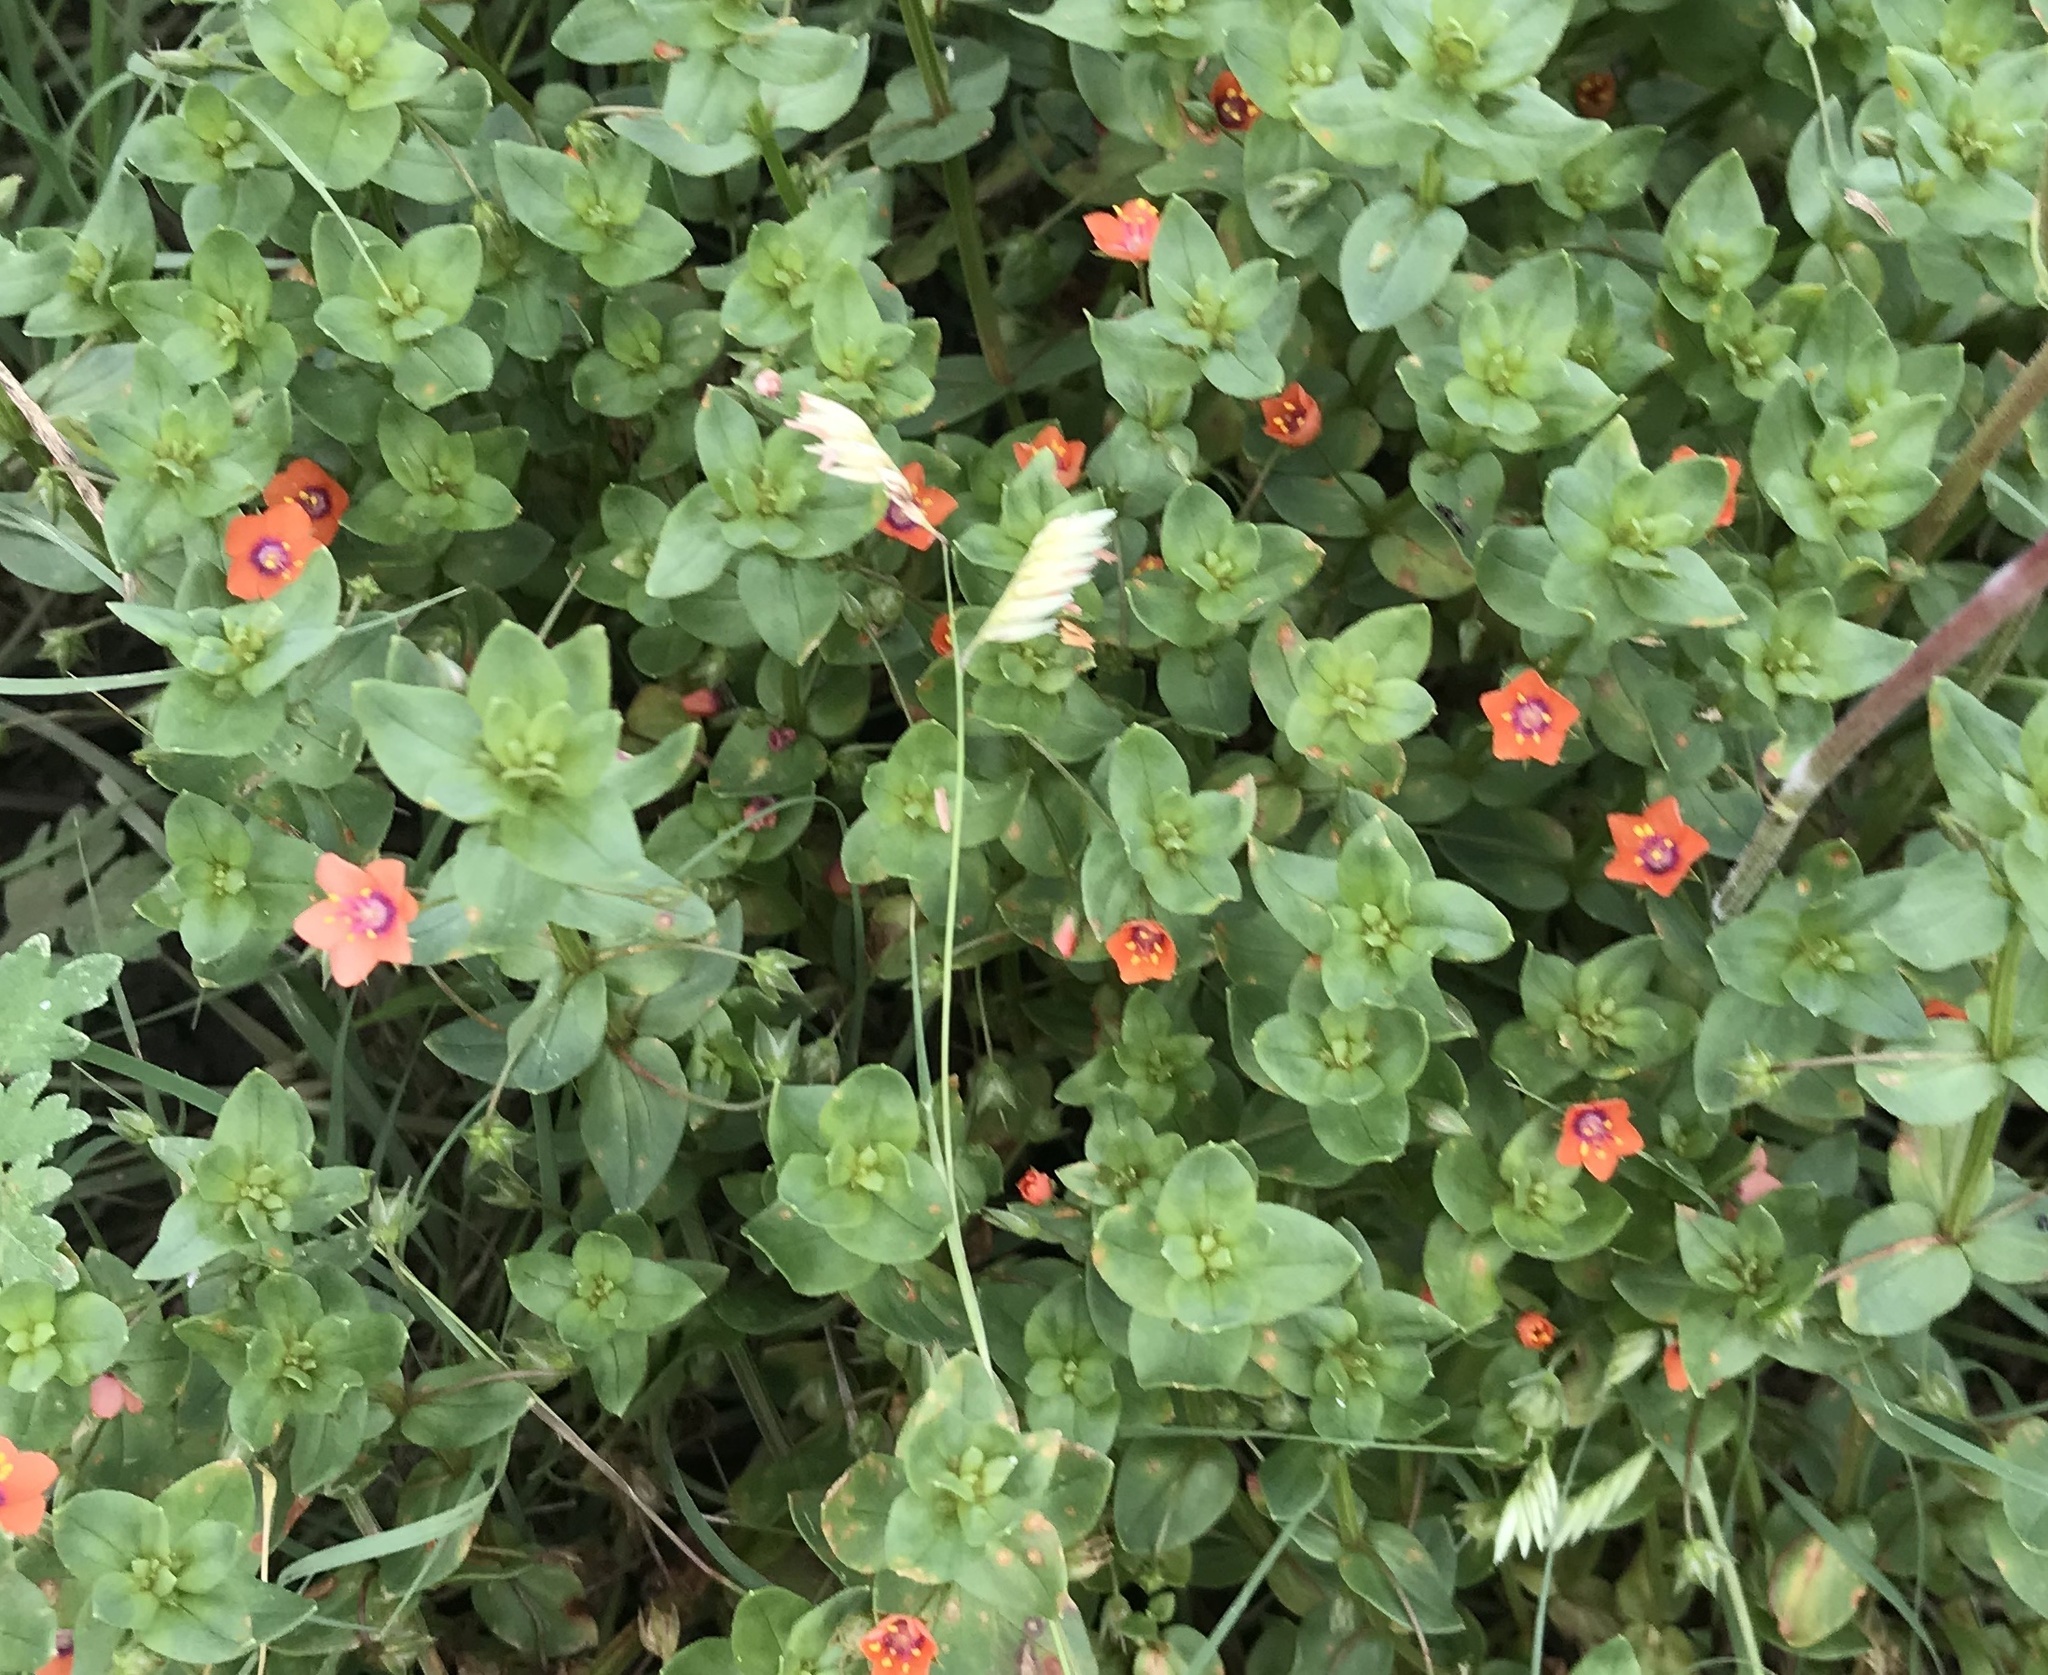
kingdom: Plantae
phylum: Tracheophyta
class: Magnoliopsida
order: Ericales
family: Primulaceae
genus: Lysimachia
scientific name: Lysimachia arvensis
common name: Scarlet pimpernel
